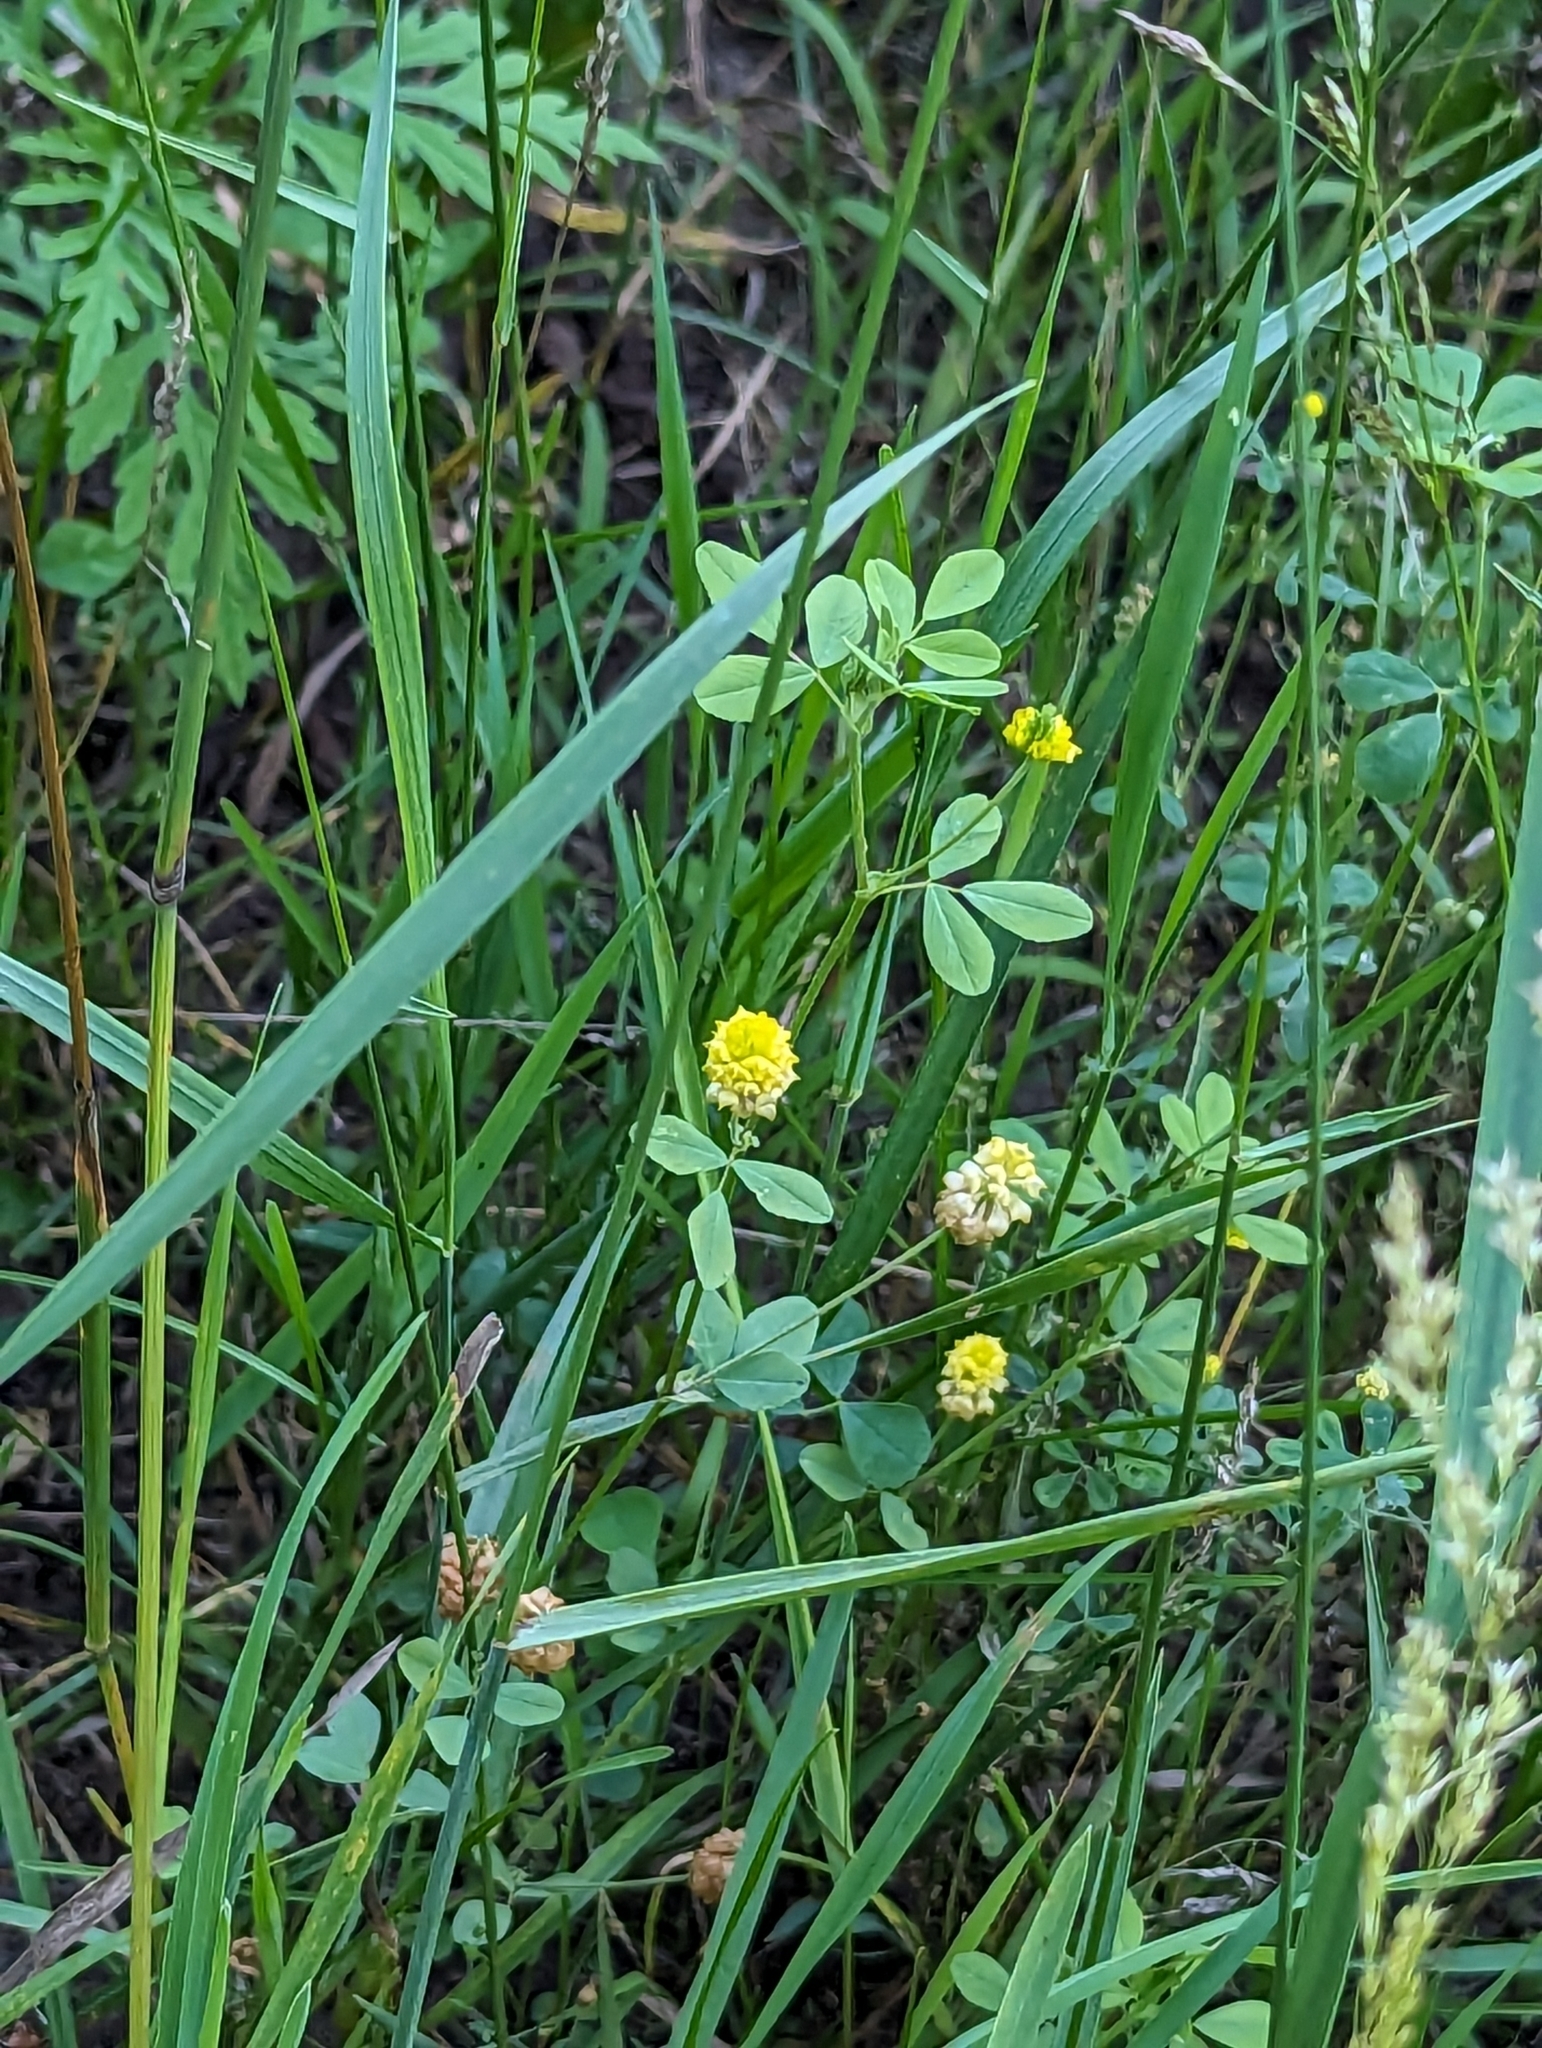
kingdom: Plantae
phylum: Tracheophyta
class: Magnoliopsida
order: Fabales
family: Fabaceae
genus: Trifolium
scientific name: Trifolium campestre
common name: Field clover
